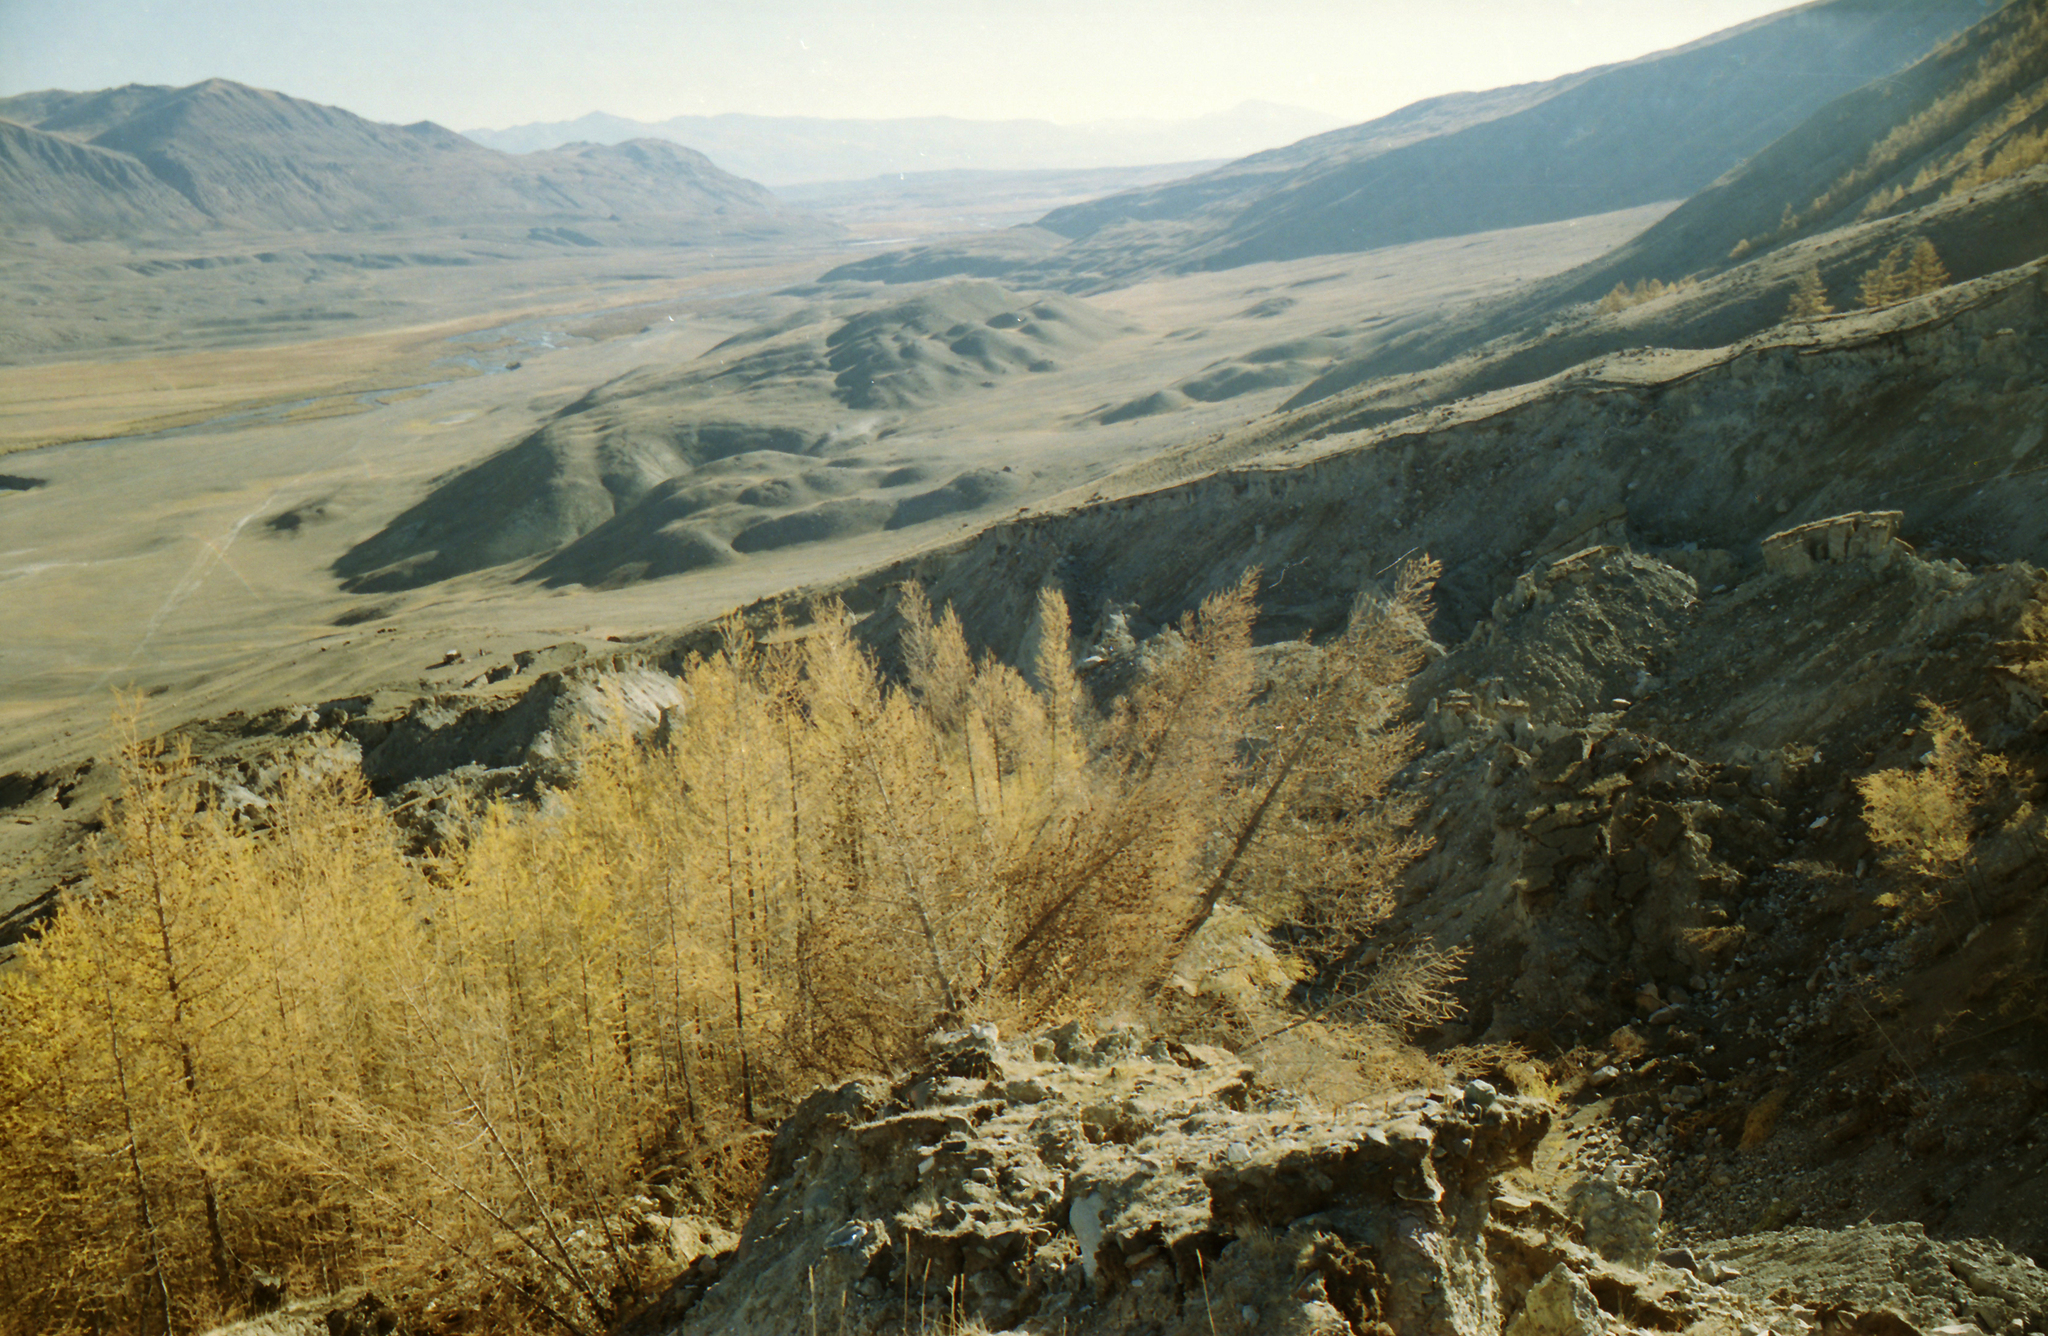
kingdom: Plantae
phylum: Tracheophyta
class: Pinopsida
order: Pinales
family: Pinaceae
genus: Larix
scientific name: Larix sibirica
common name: Siberian larch
